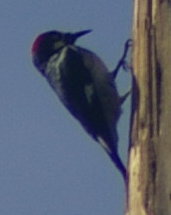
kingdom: Animalia
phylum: Chordata
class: Aves
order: Piciformes
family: Picidae
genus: Melanerpes
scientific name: Melanerpes formicivorus
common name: Acorn woodpecker
